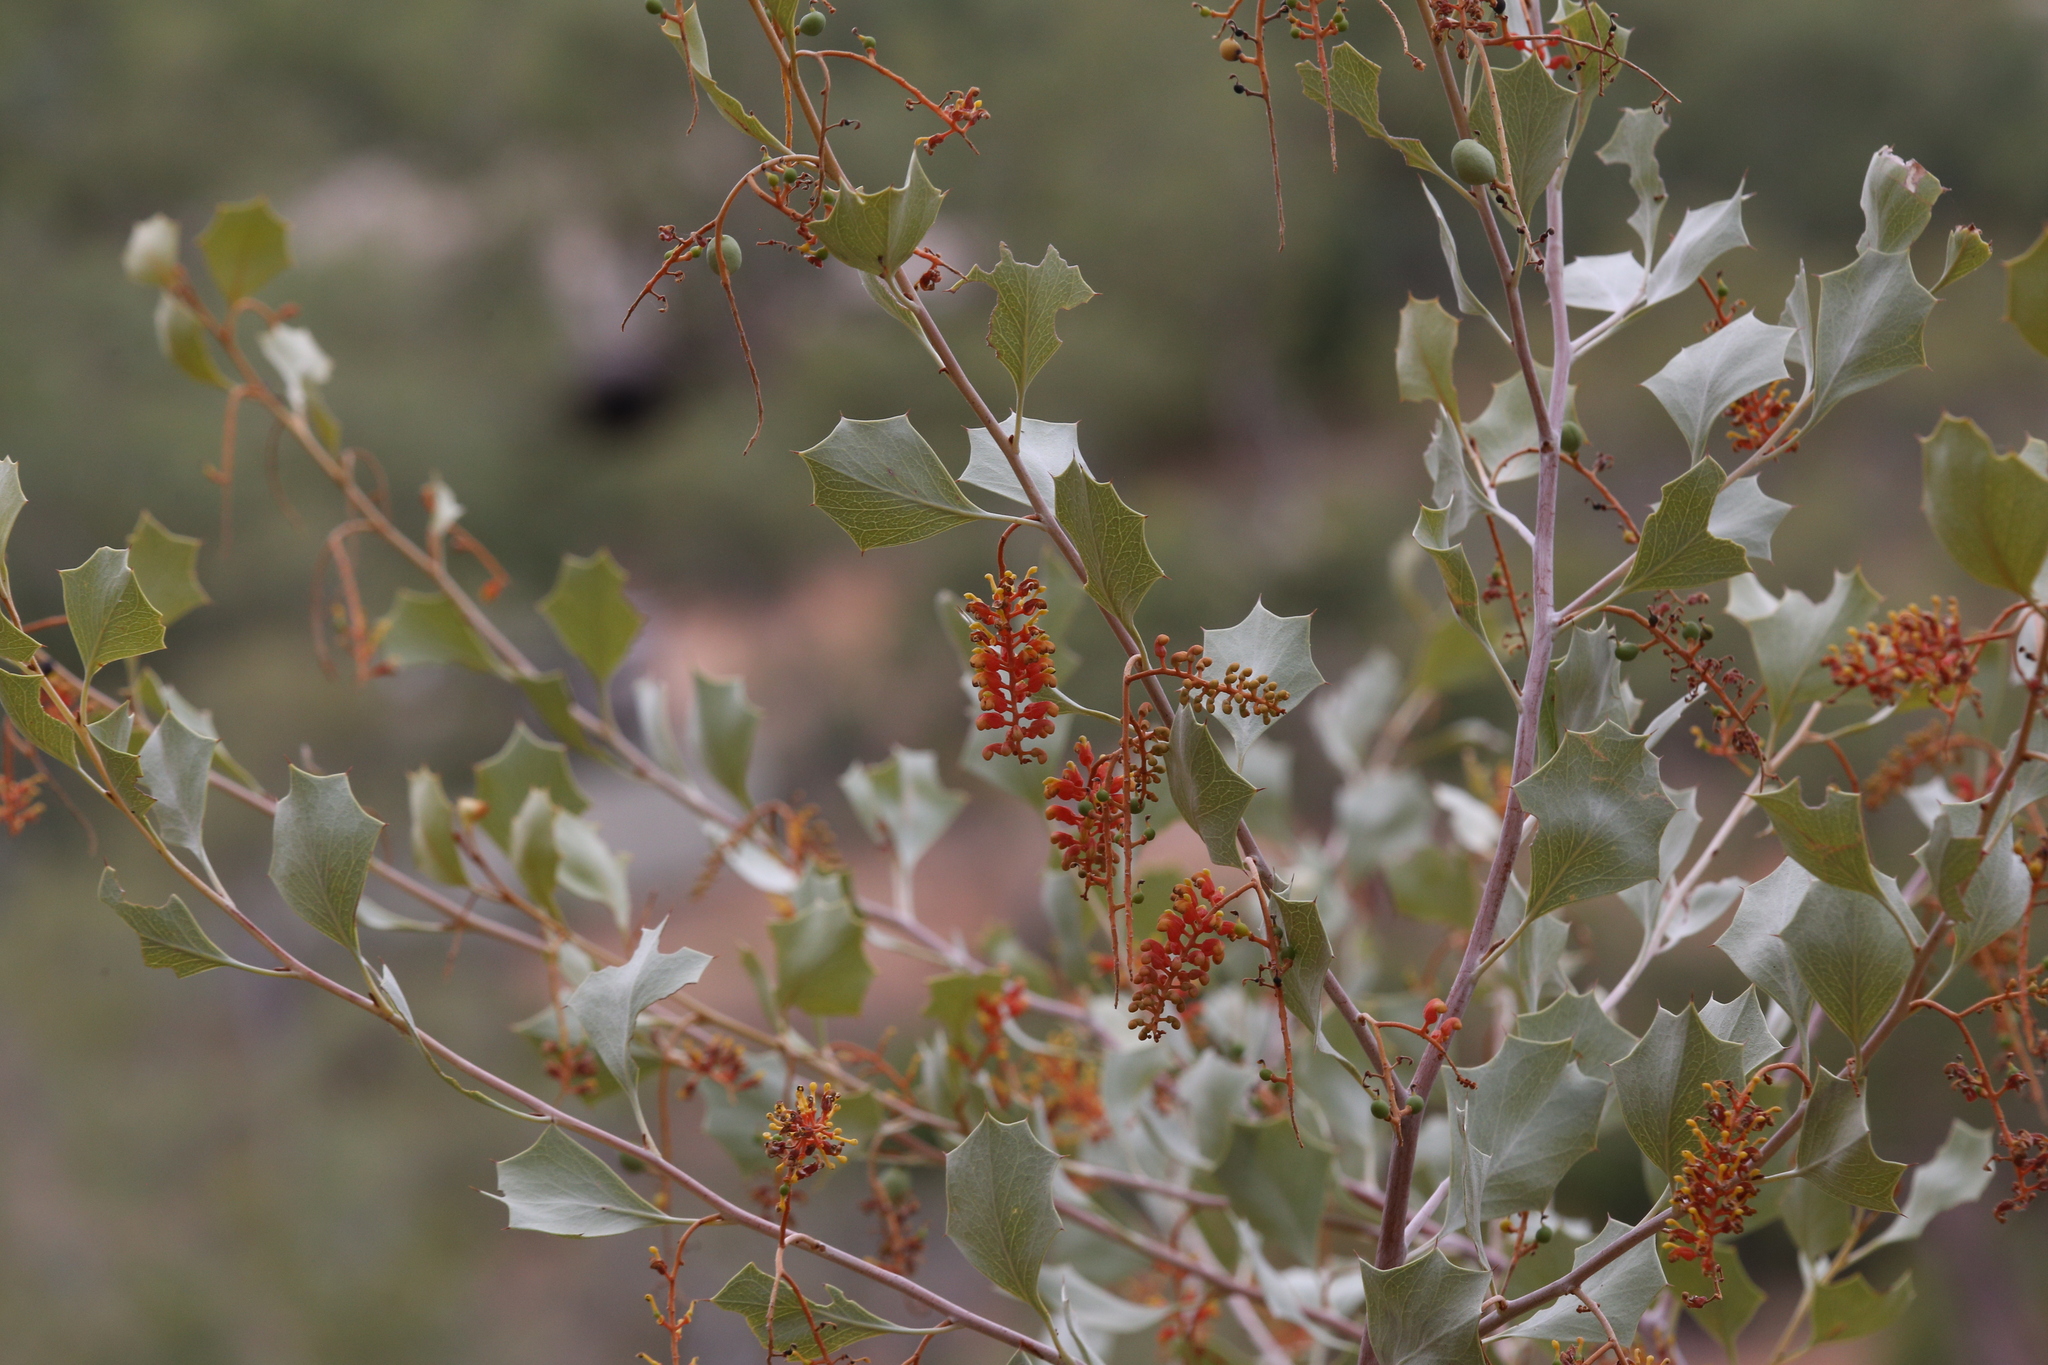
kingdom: Plantae
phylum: Tracheophyta
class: Magnoliopsida
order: Proteales
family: Proteaceae
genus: Grevillea
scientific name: Grevillea wickhamii
